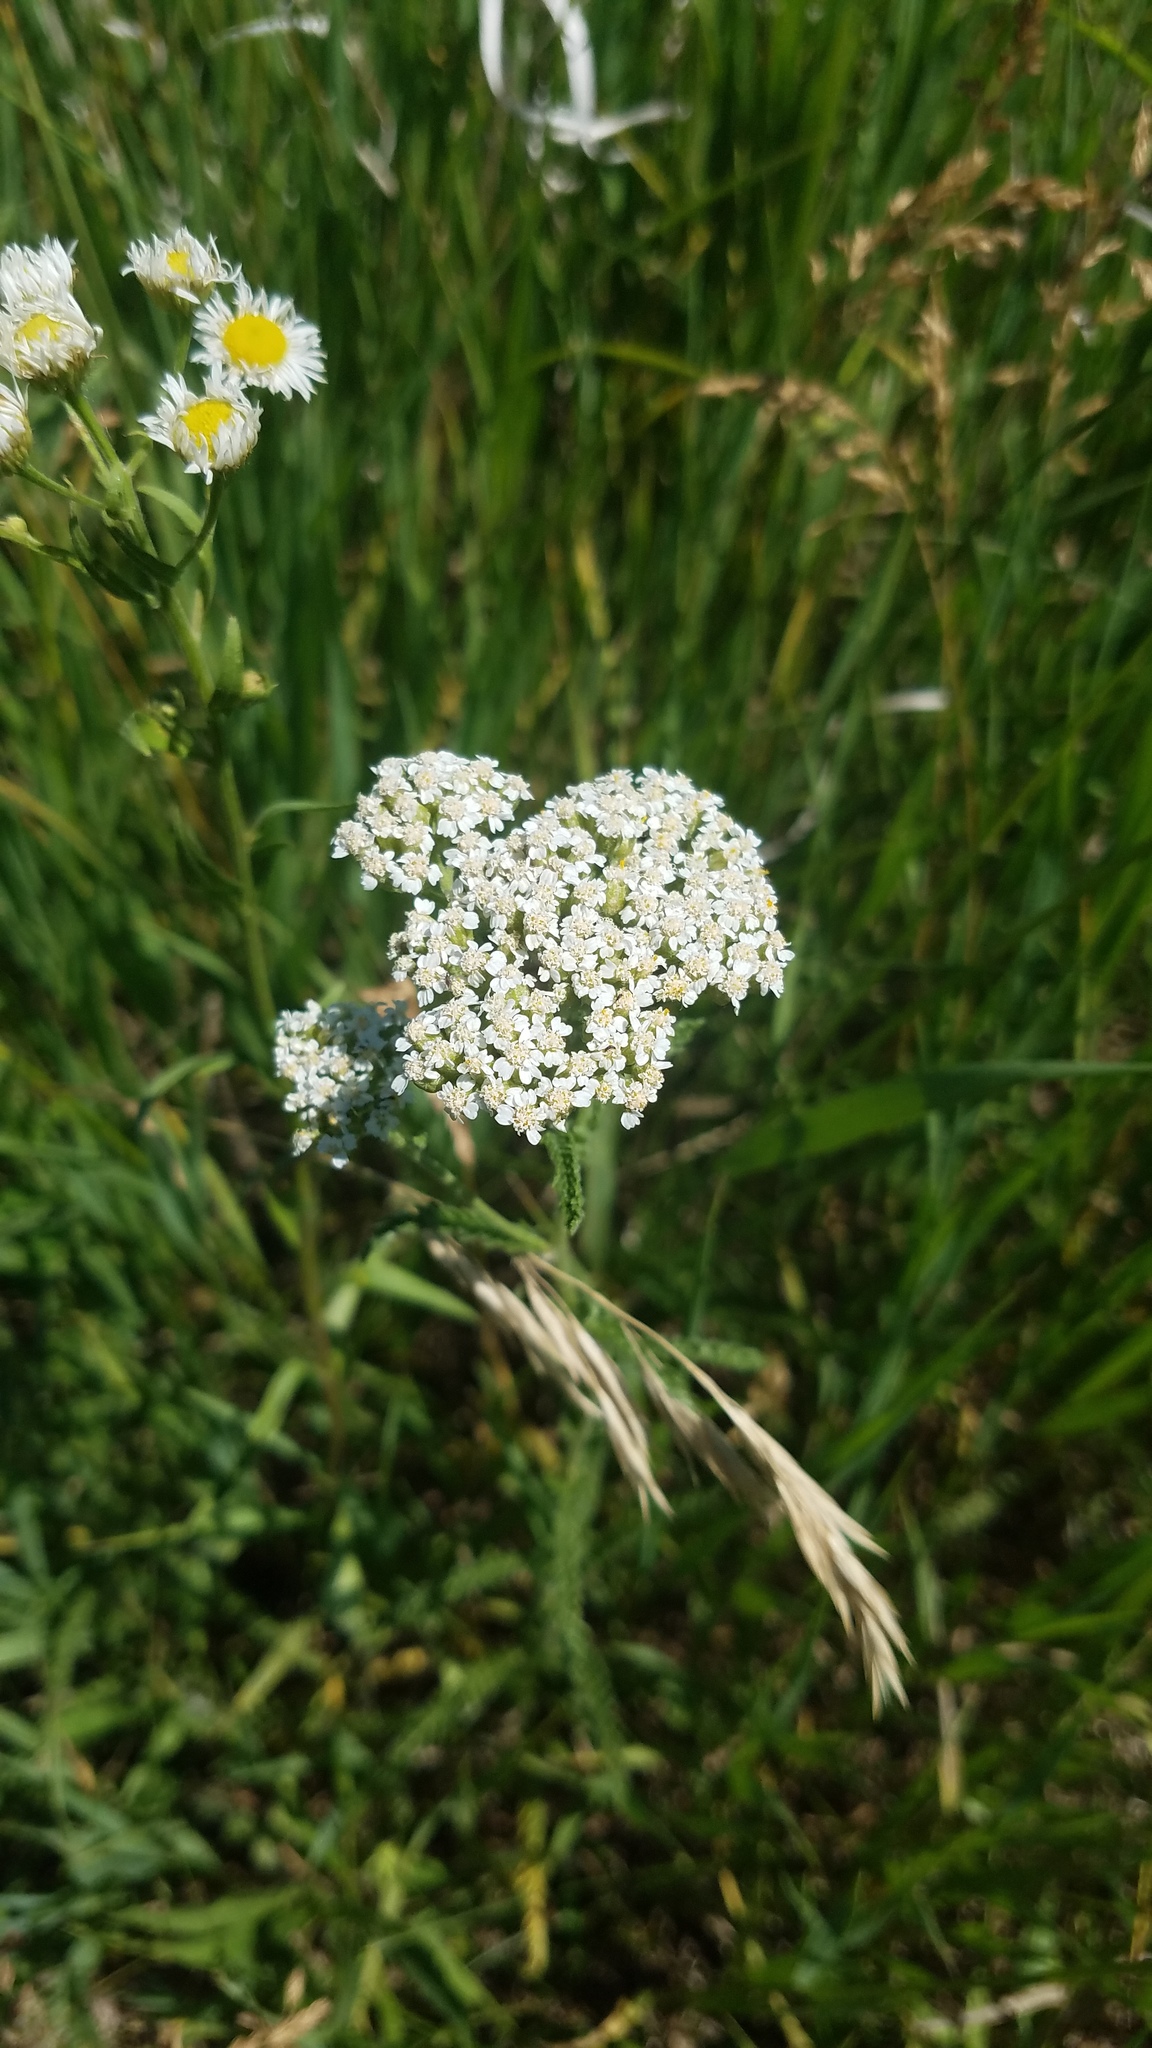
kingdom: Plantae
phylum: Tracheophyta
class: Magnoliopsida
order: Asterales
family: Asteraceae
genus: Achillea
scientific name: Achillea millefolium
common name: Yarrow
